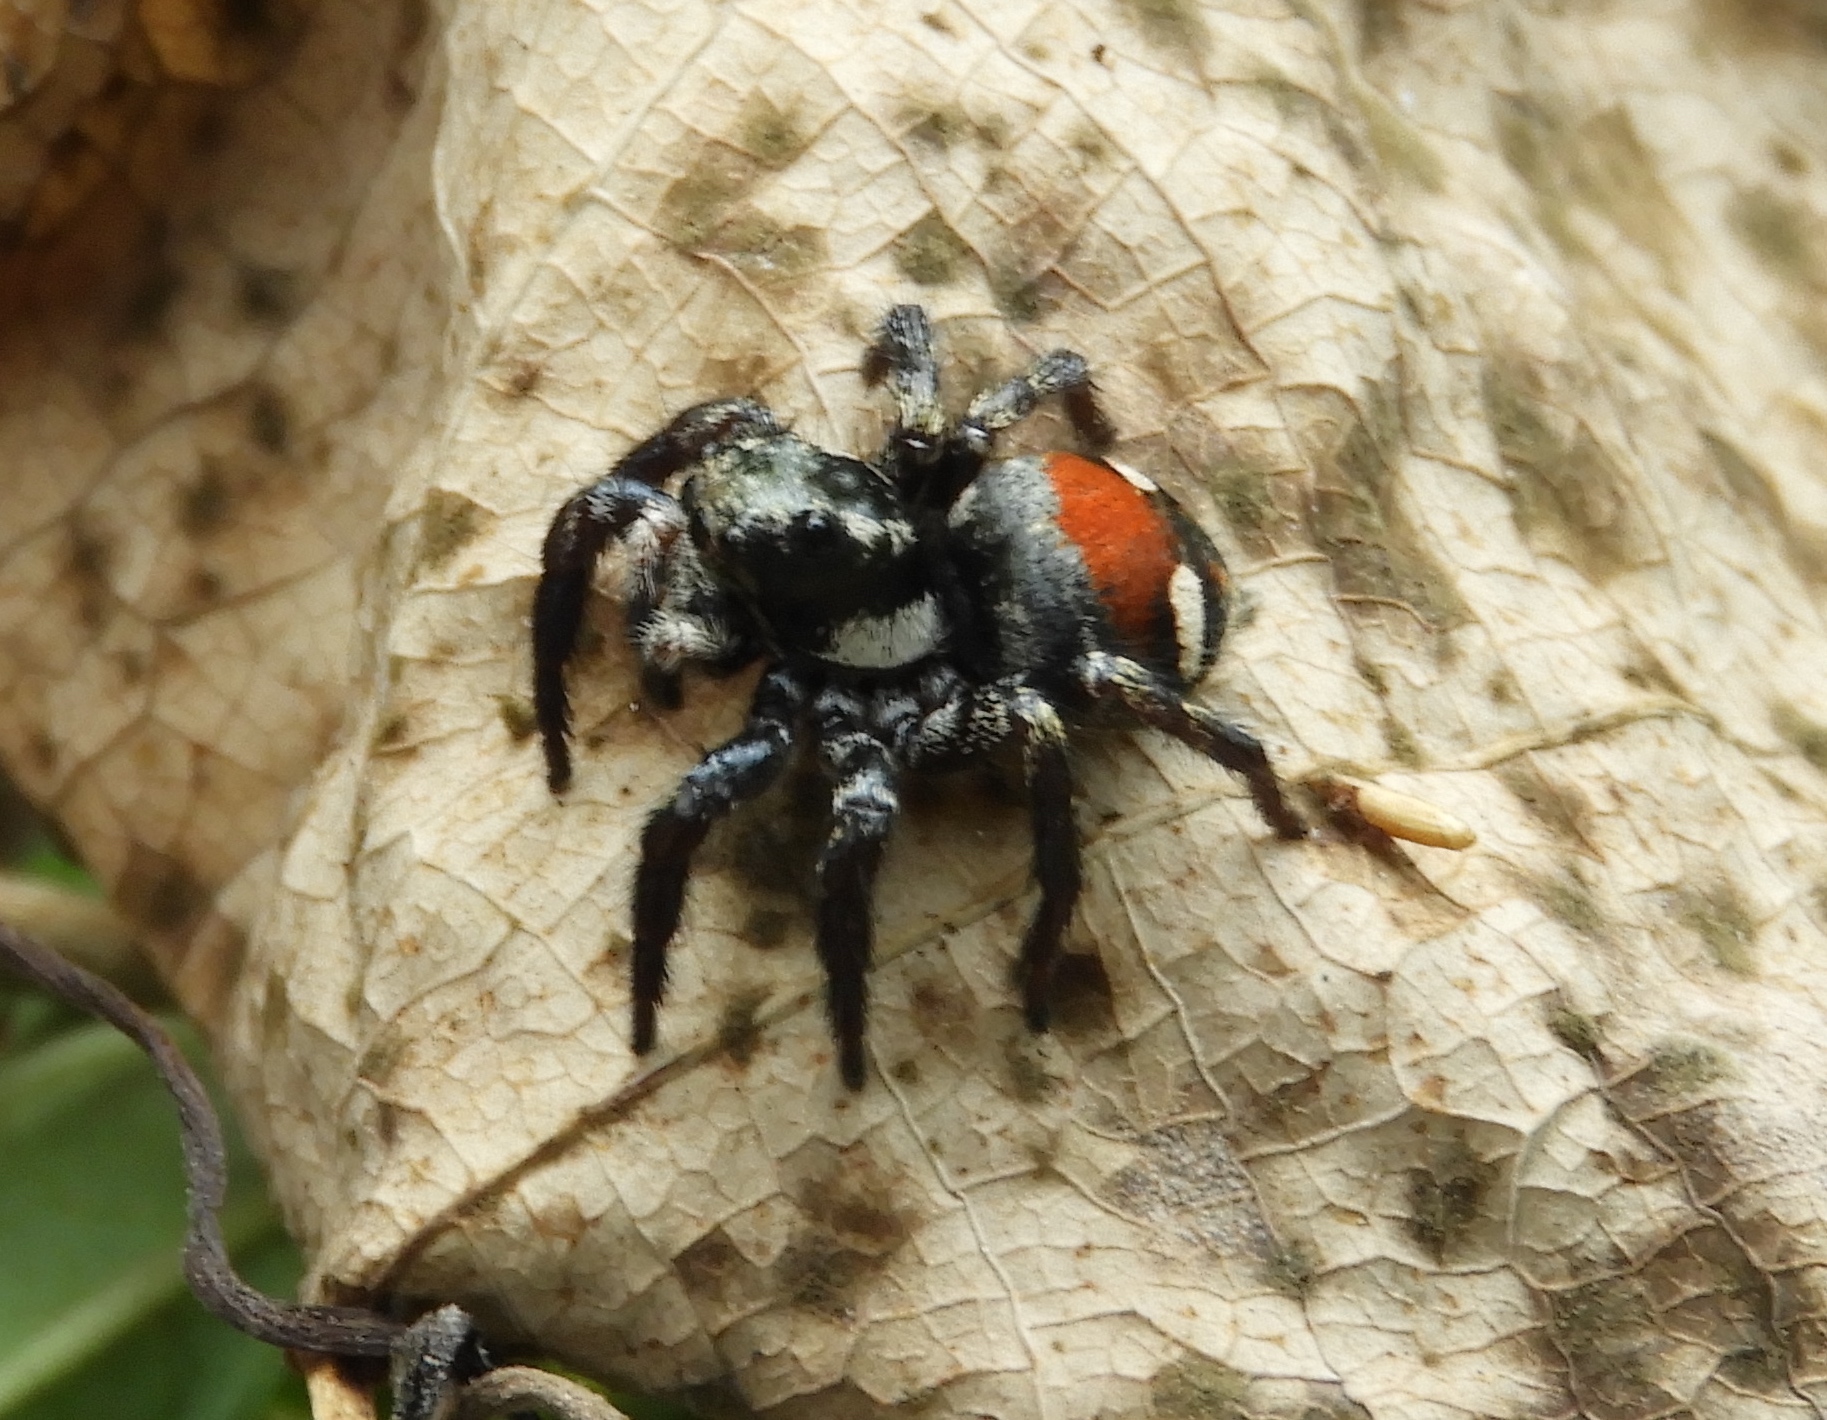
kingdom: Animalia
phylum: Arthropoda
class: Arachnida
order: Araneae
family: Salticidae
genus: Corythalia
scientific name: Corythalia
